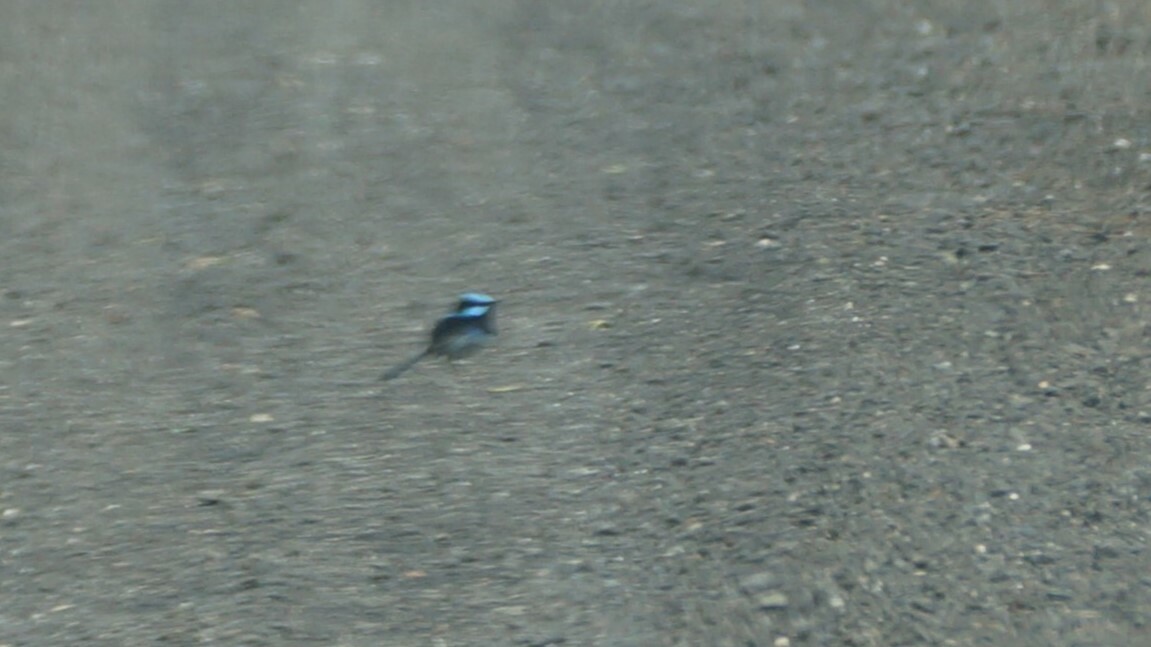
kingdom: Animalia
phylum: Chordata
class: Aves
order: Passeriformes
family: Maluridae
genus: Malurus
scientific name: Malurus cyaneus
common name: Superb fairywren
